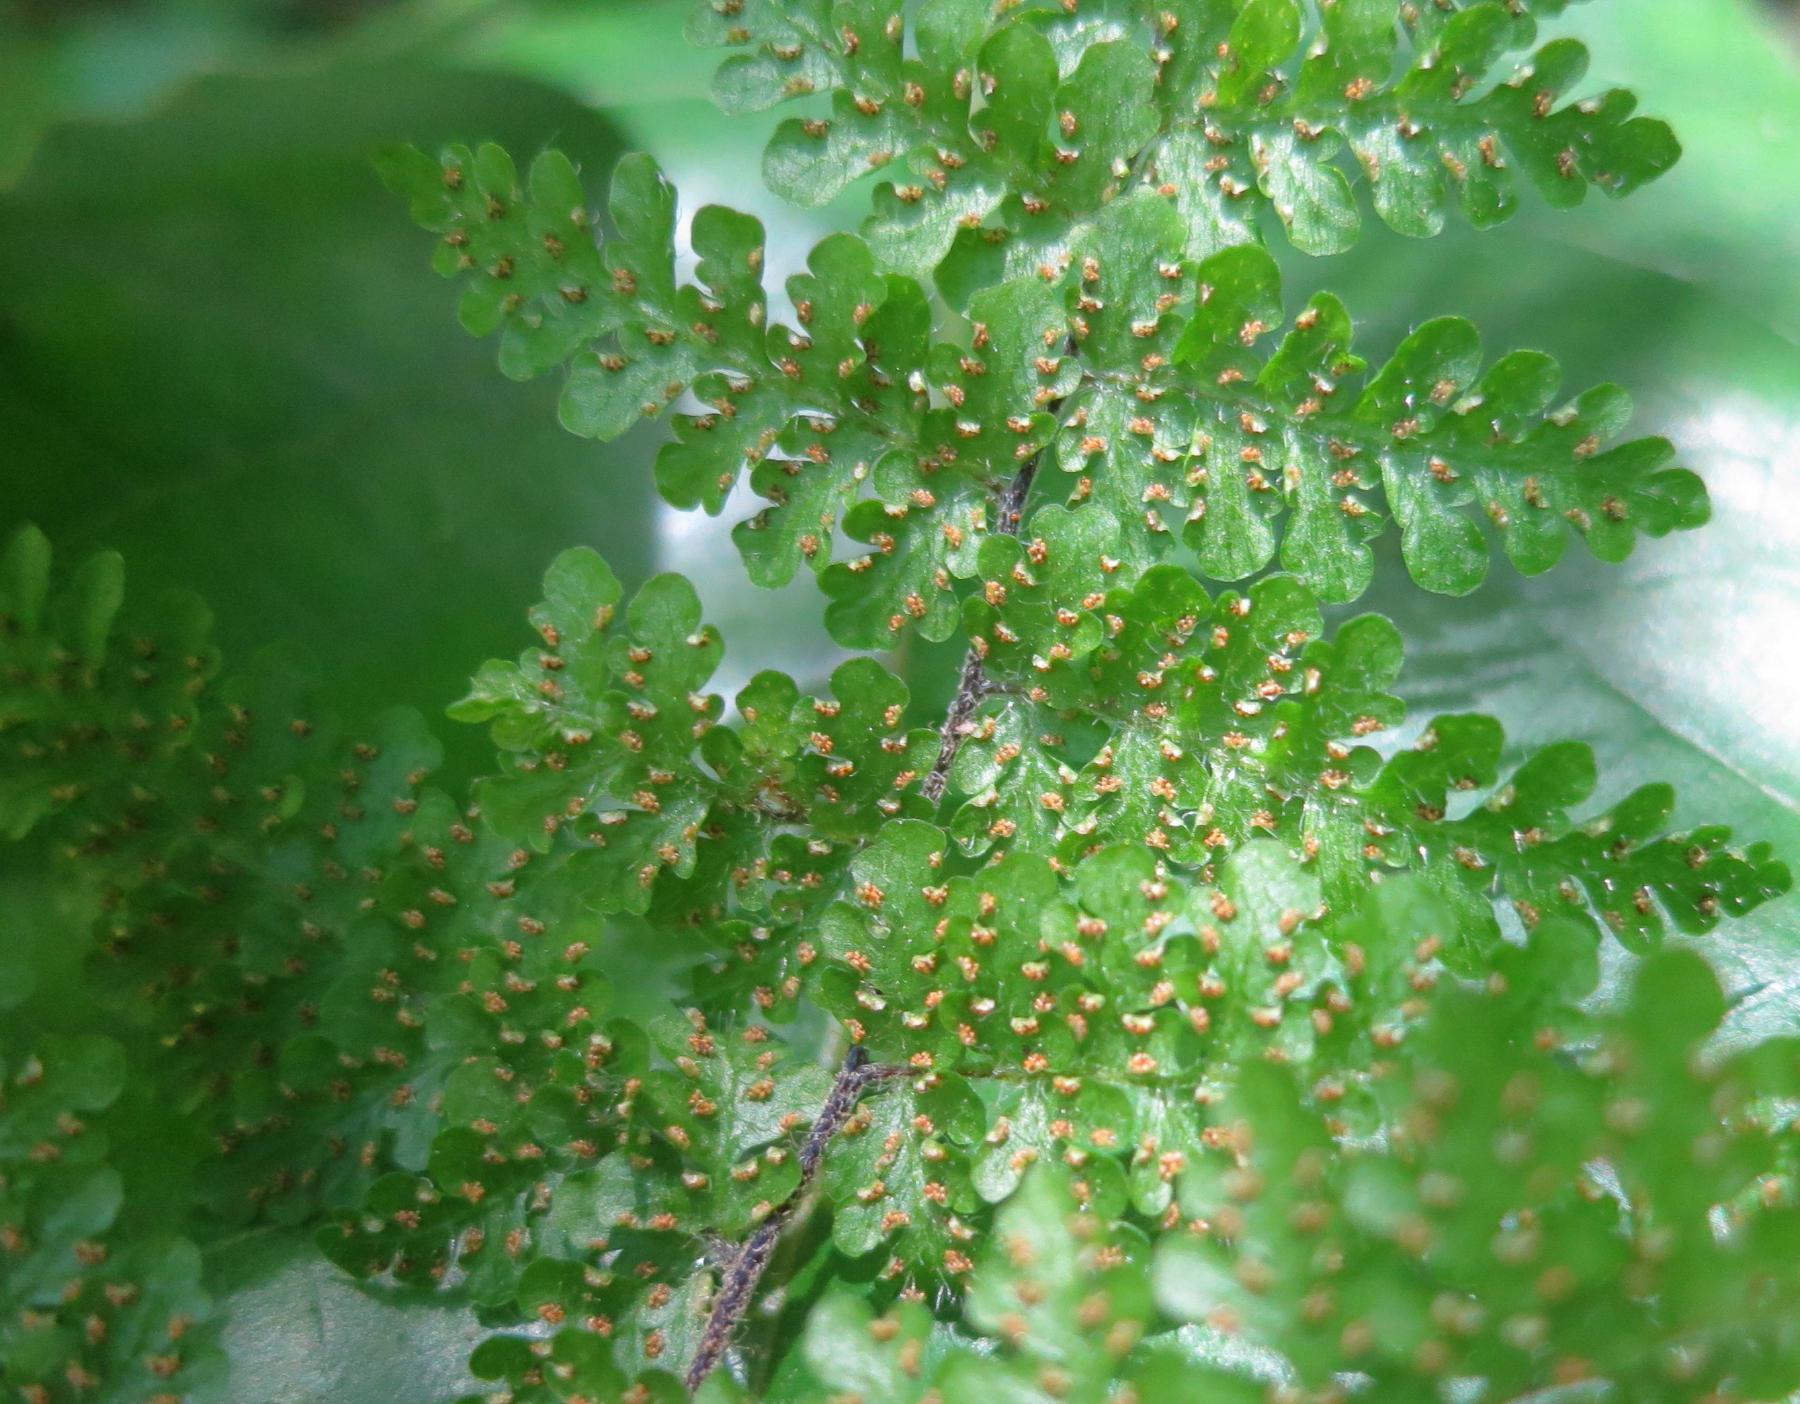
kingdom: Plantae
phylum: Tracheophyta
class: Polypodiopsida
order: Polypodiales
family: Pteridaceae
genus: Cheilanthes
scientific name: Cheilanthes bergiana
